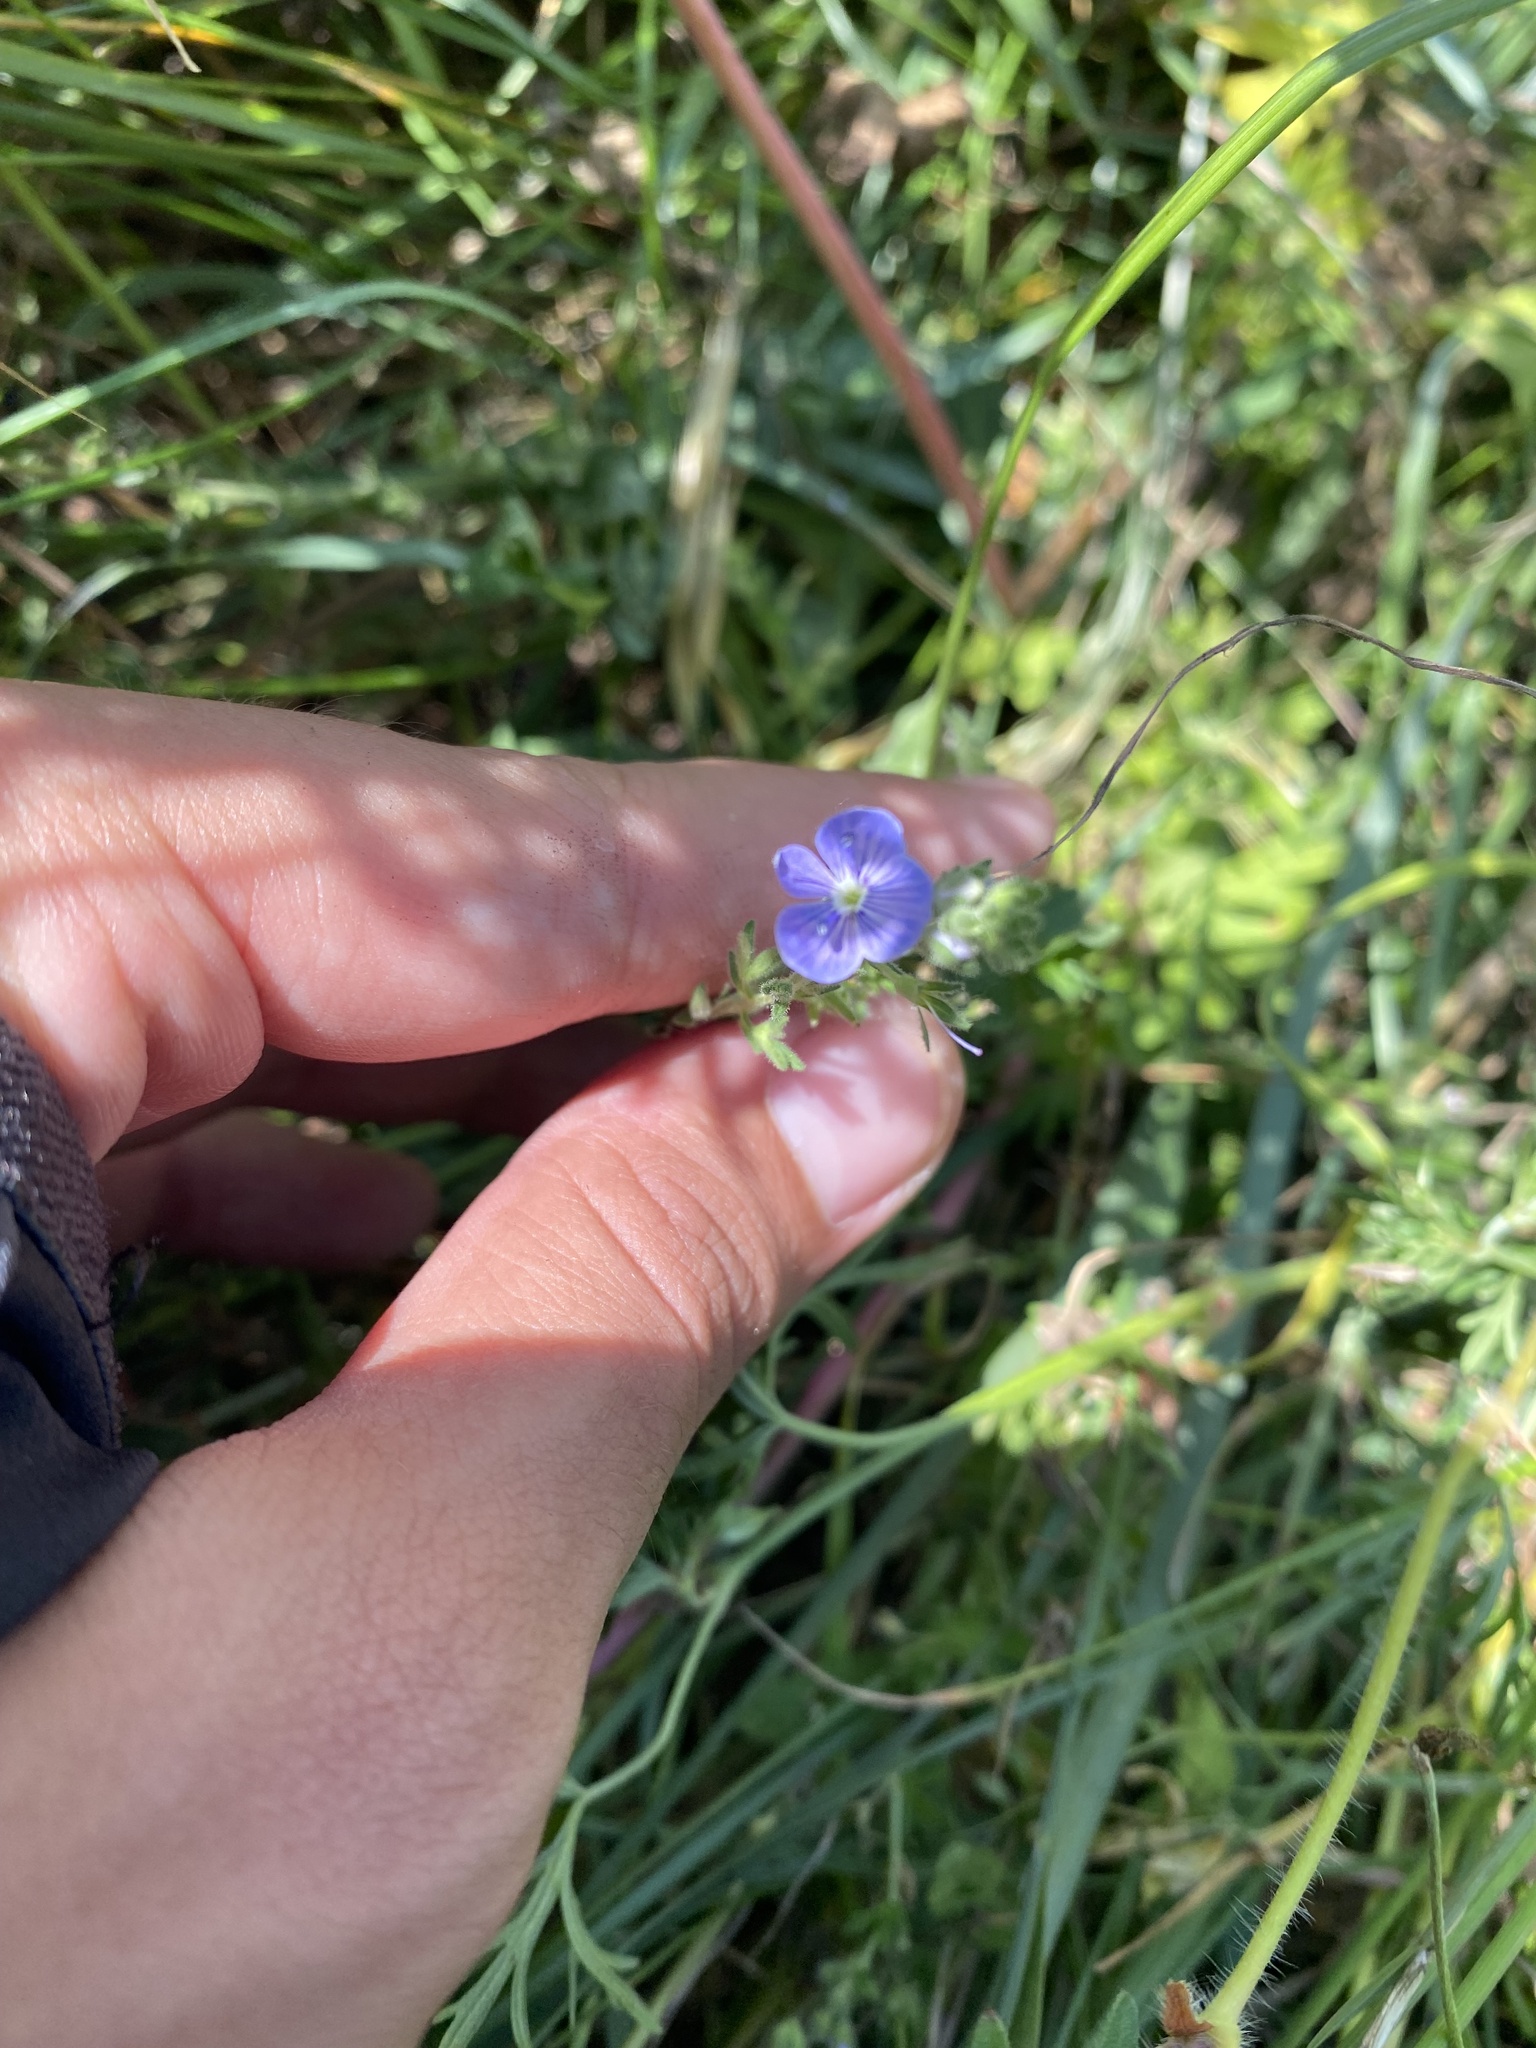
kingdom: Plantae
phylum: Tracheophyta
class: Magnoliopsida
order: Lamiales
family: Plantaginaceae
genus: Veronica
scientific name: Veronica chamaedrys
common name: Germander speedwell
